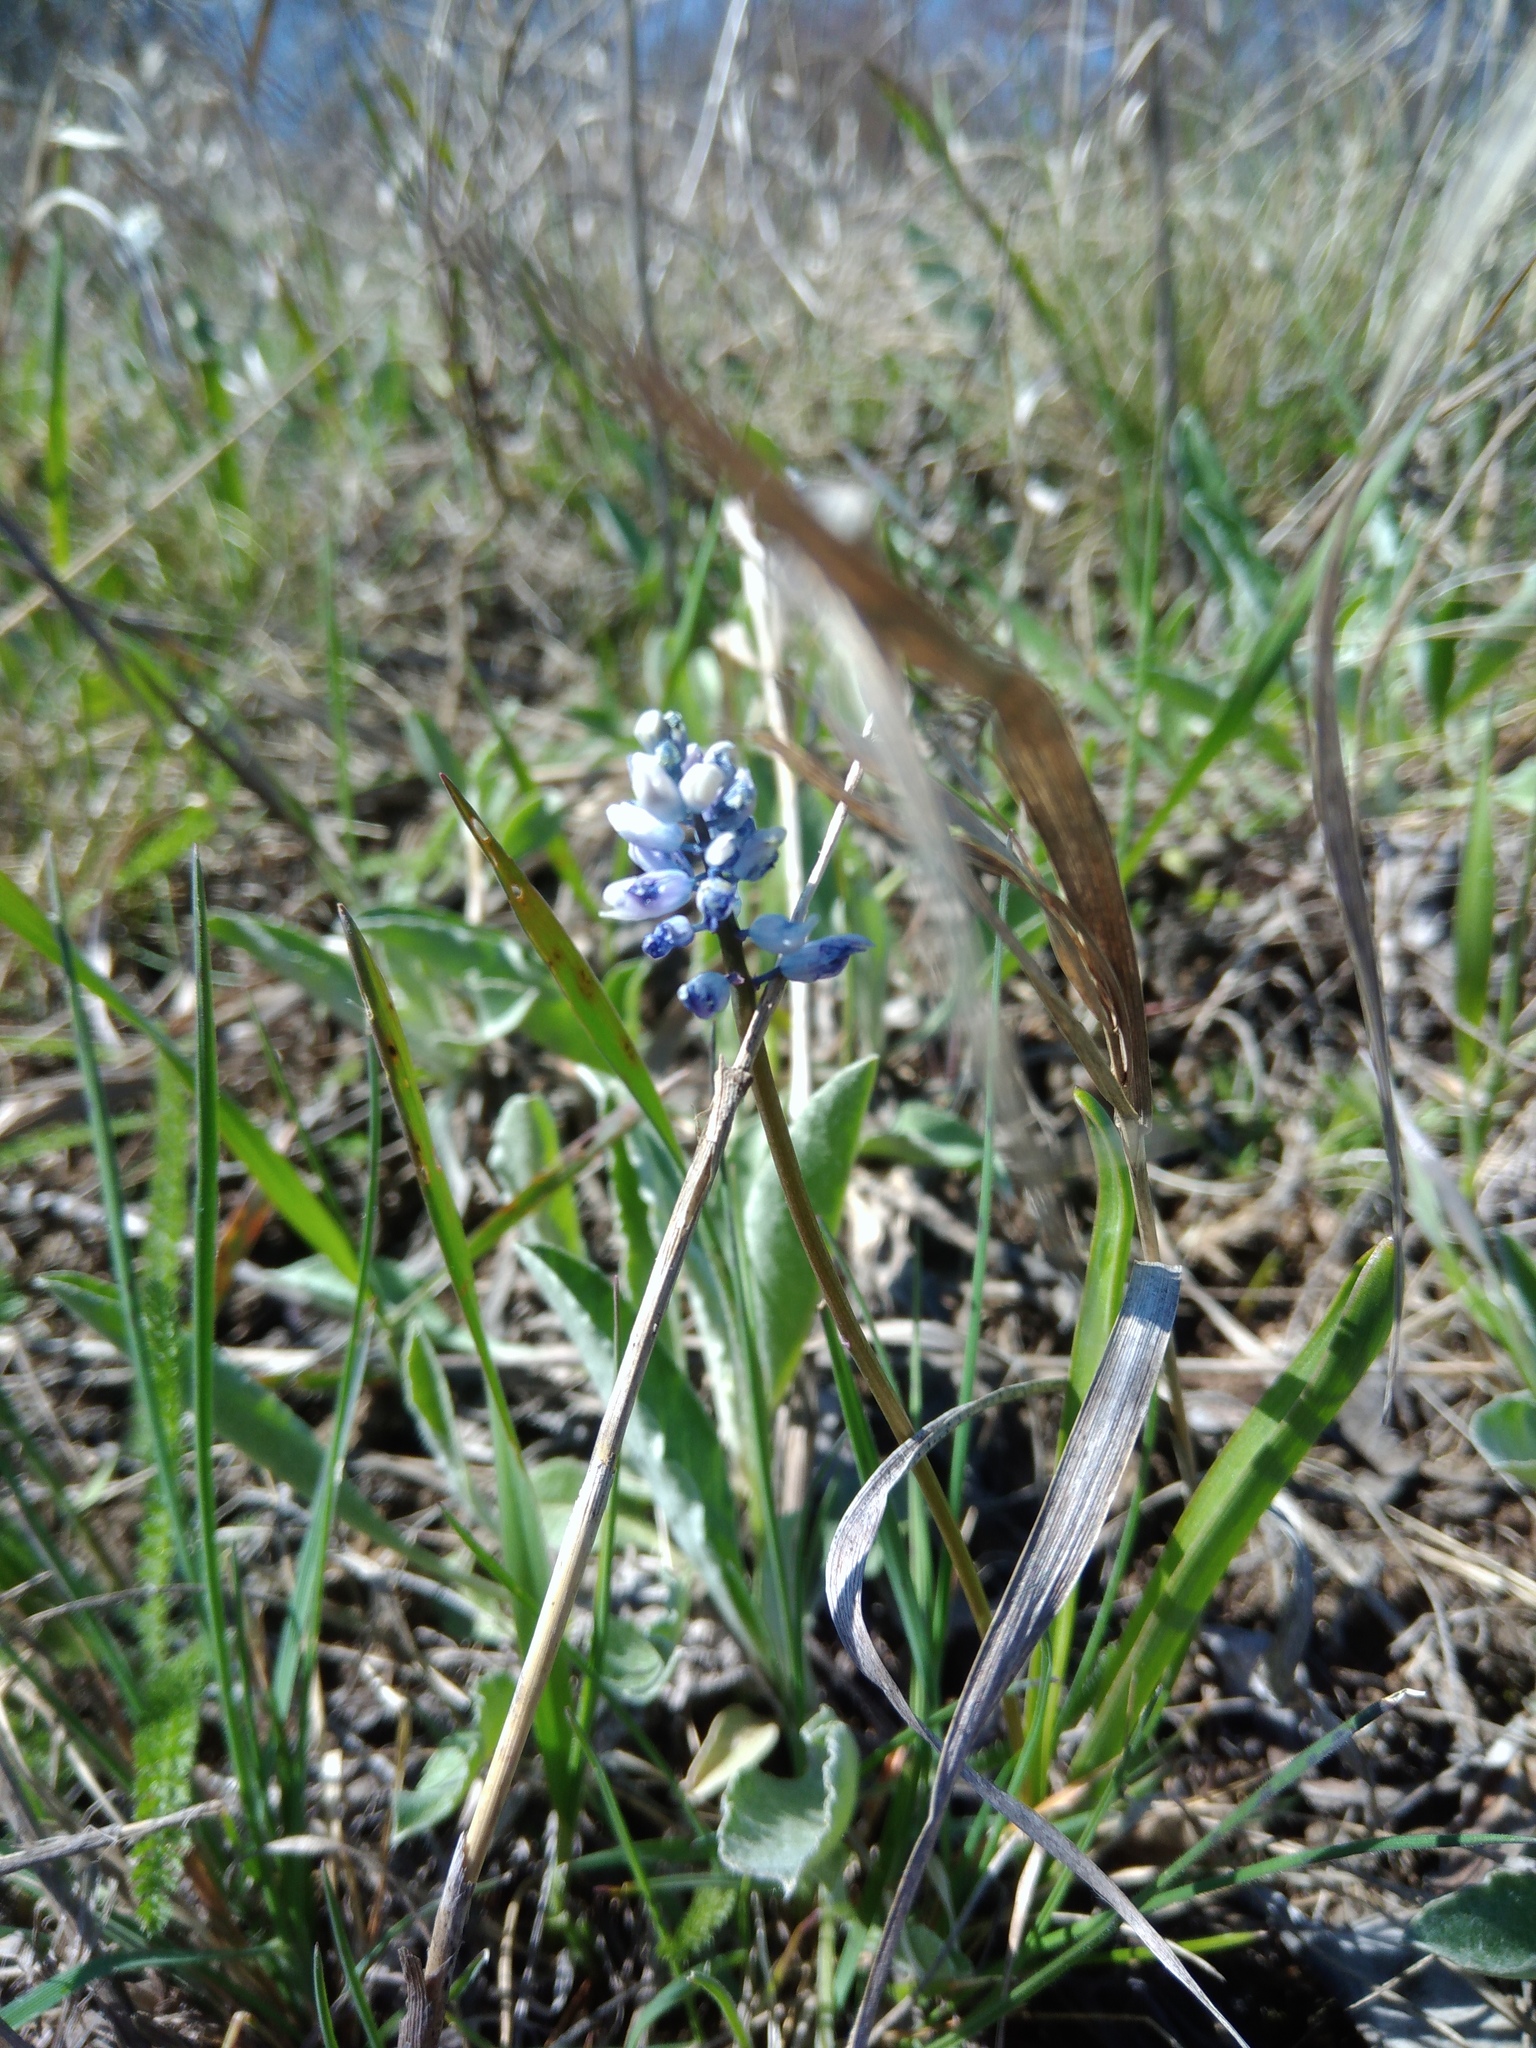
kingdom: Plantae
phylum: Tracheophyta
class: Liliopsida
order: Asparagales
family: Asparagaceae
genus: Hyacinthella
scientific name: Hyacinthella leucophaea
